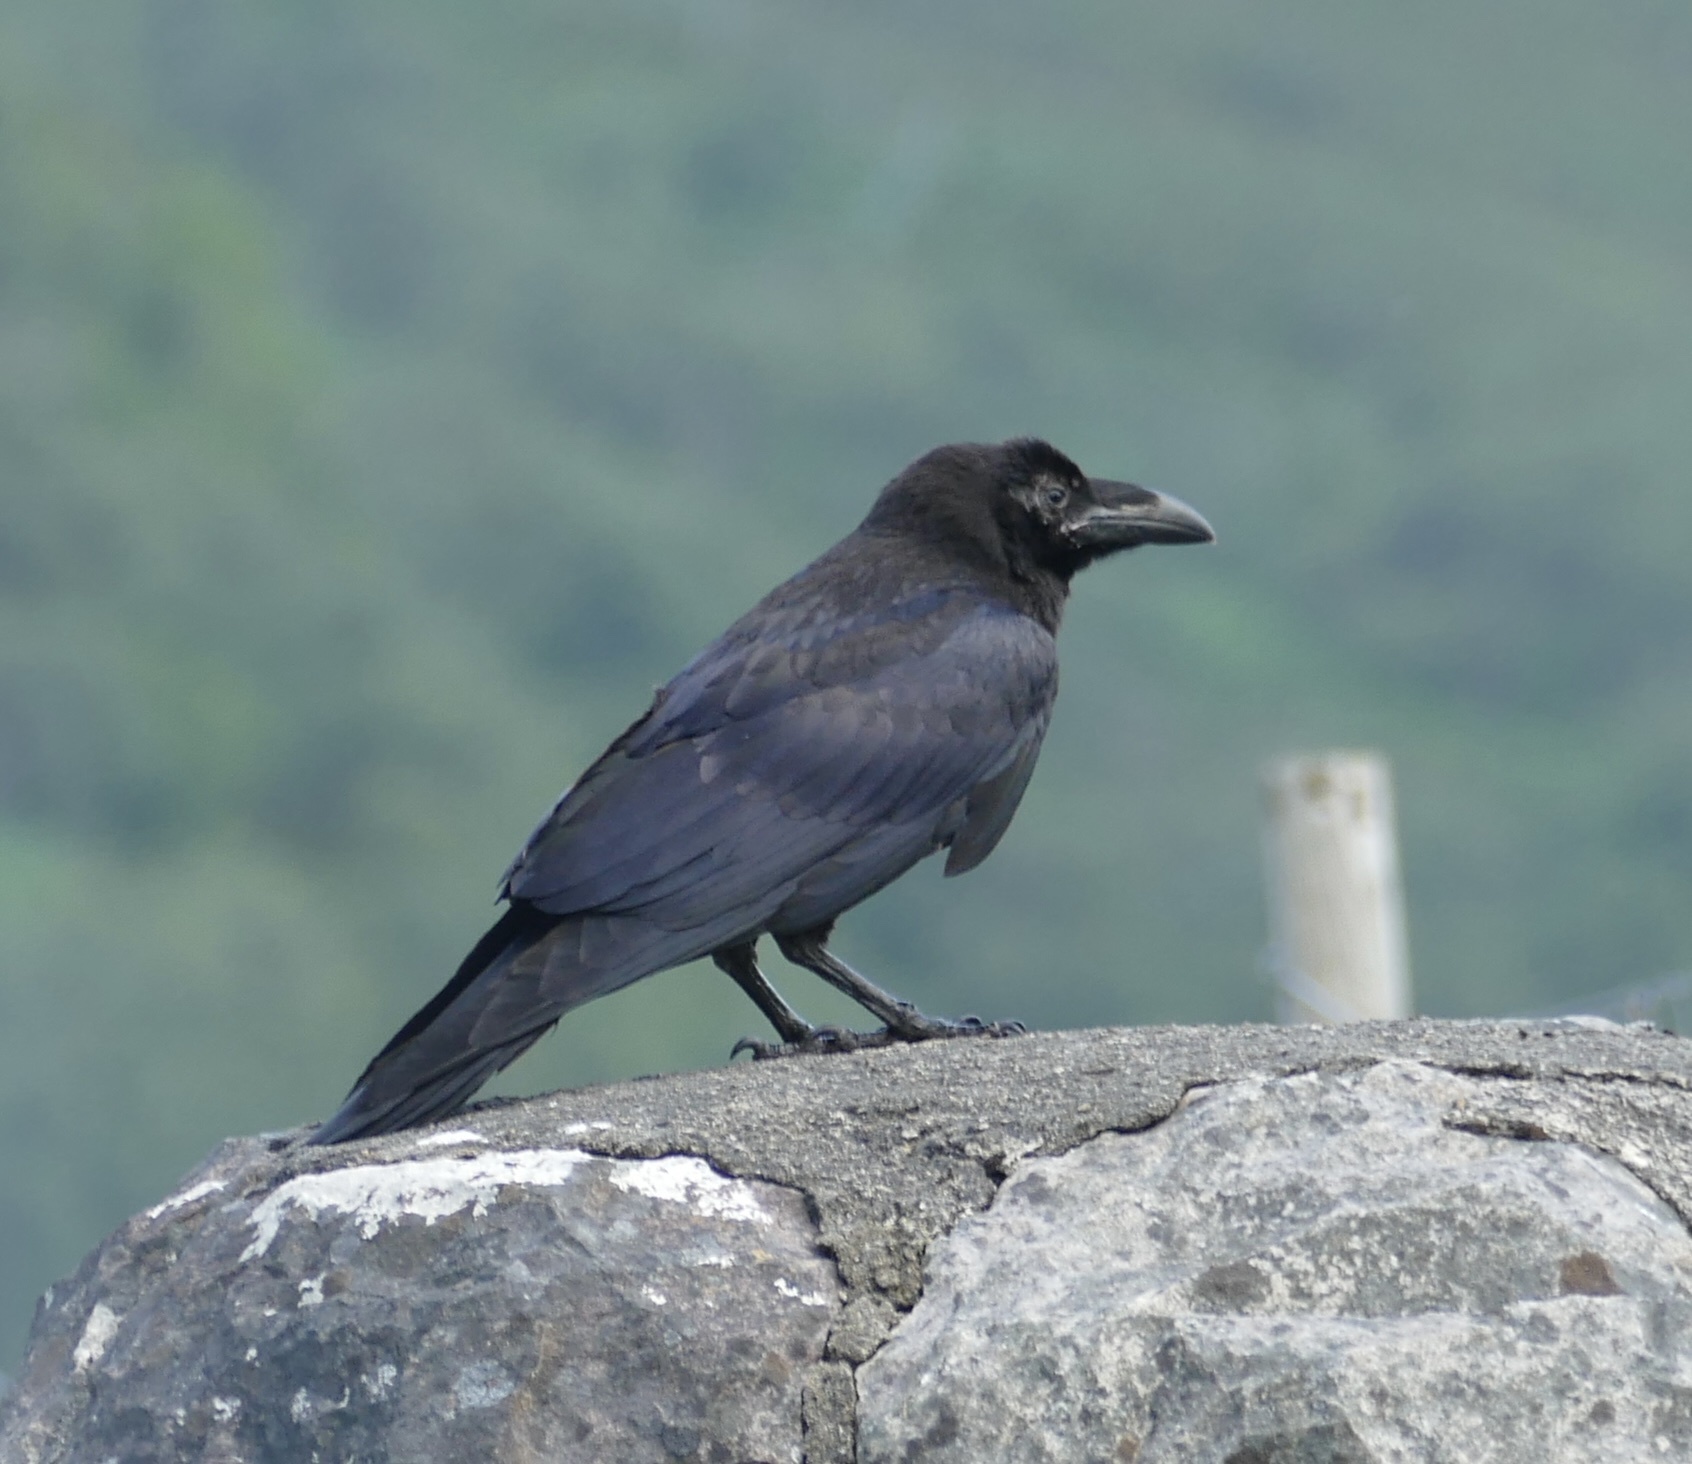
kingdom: Animalia
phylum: Chordata
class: Aves
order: Passeriformes
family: Corvidae
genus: Corvus
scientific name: Corvus corax
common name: Common raven
